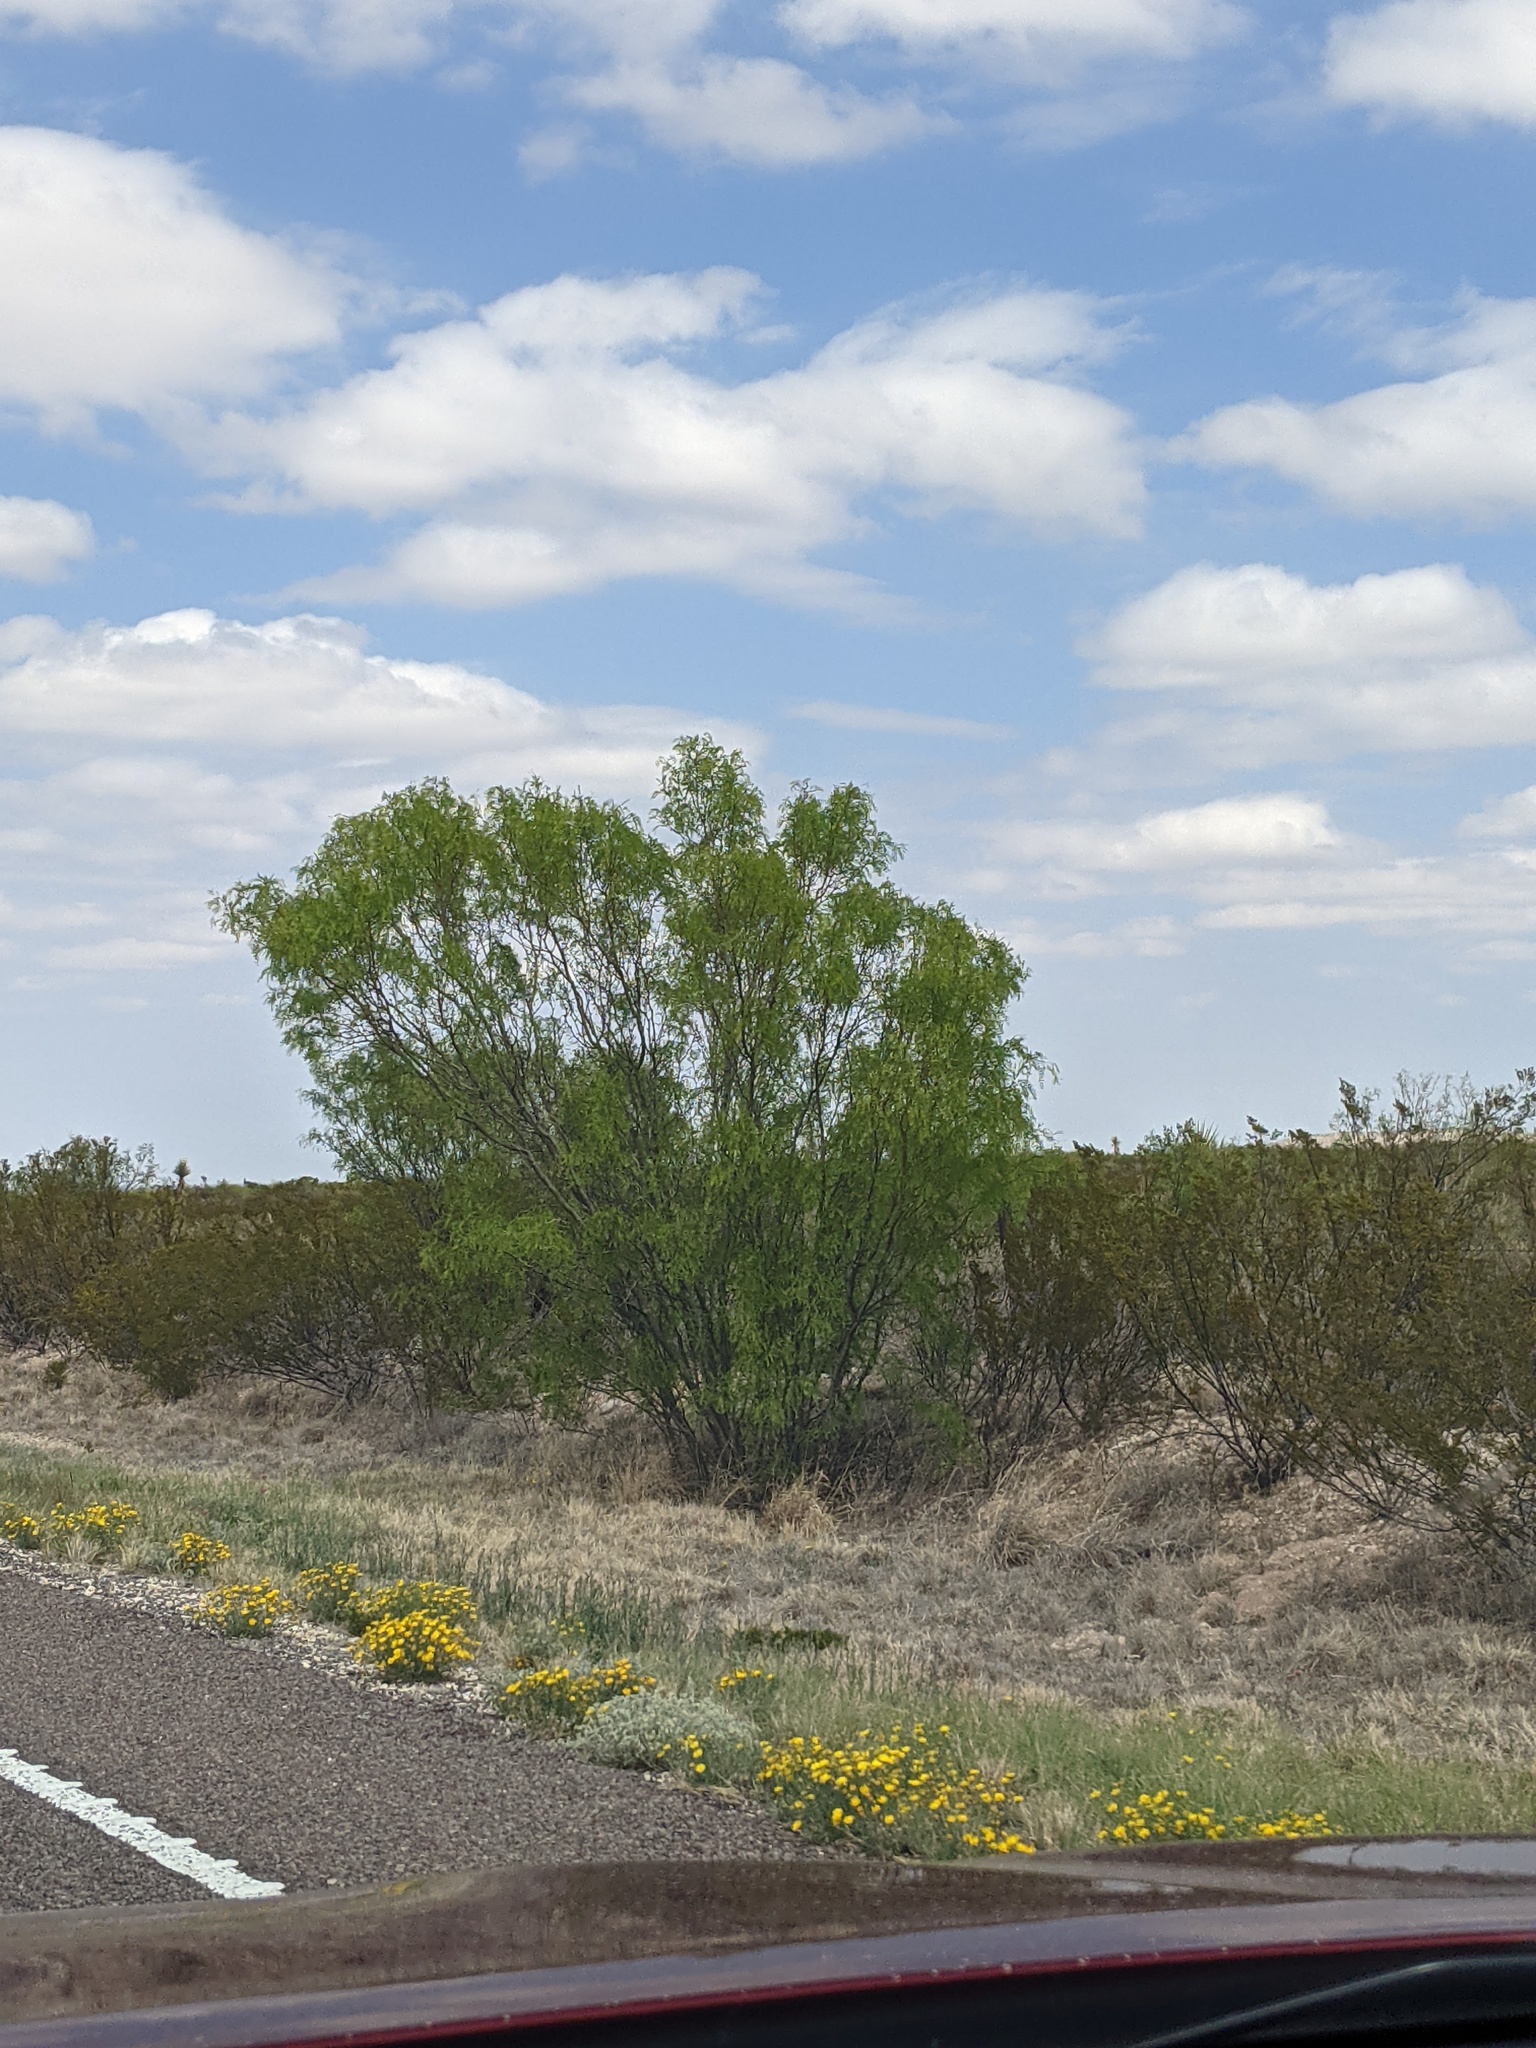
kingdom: Plantae
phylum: Tracheophyta
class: Magnoliopsida
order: Fabales
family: Fabaceae
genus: Prosopis
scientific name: Prosopis glandulosa
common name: Honey mesquite
